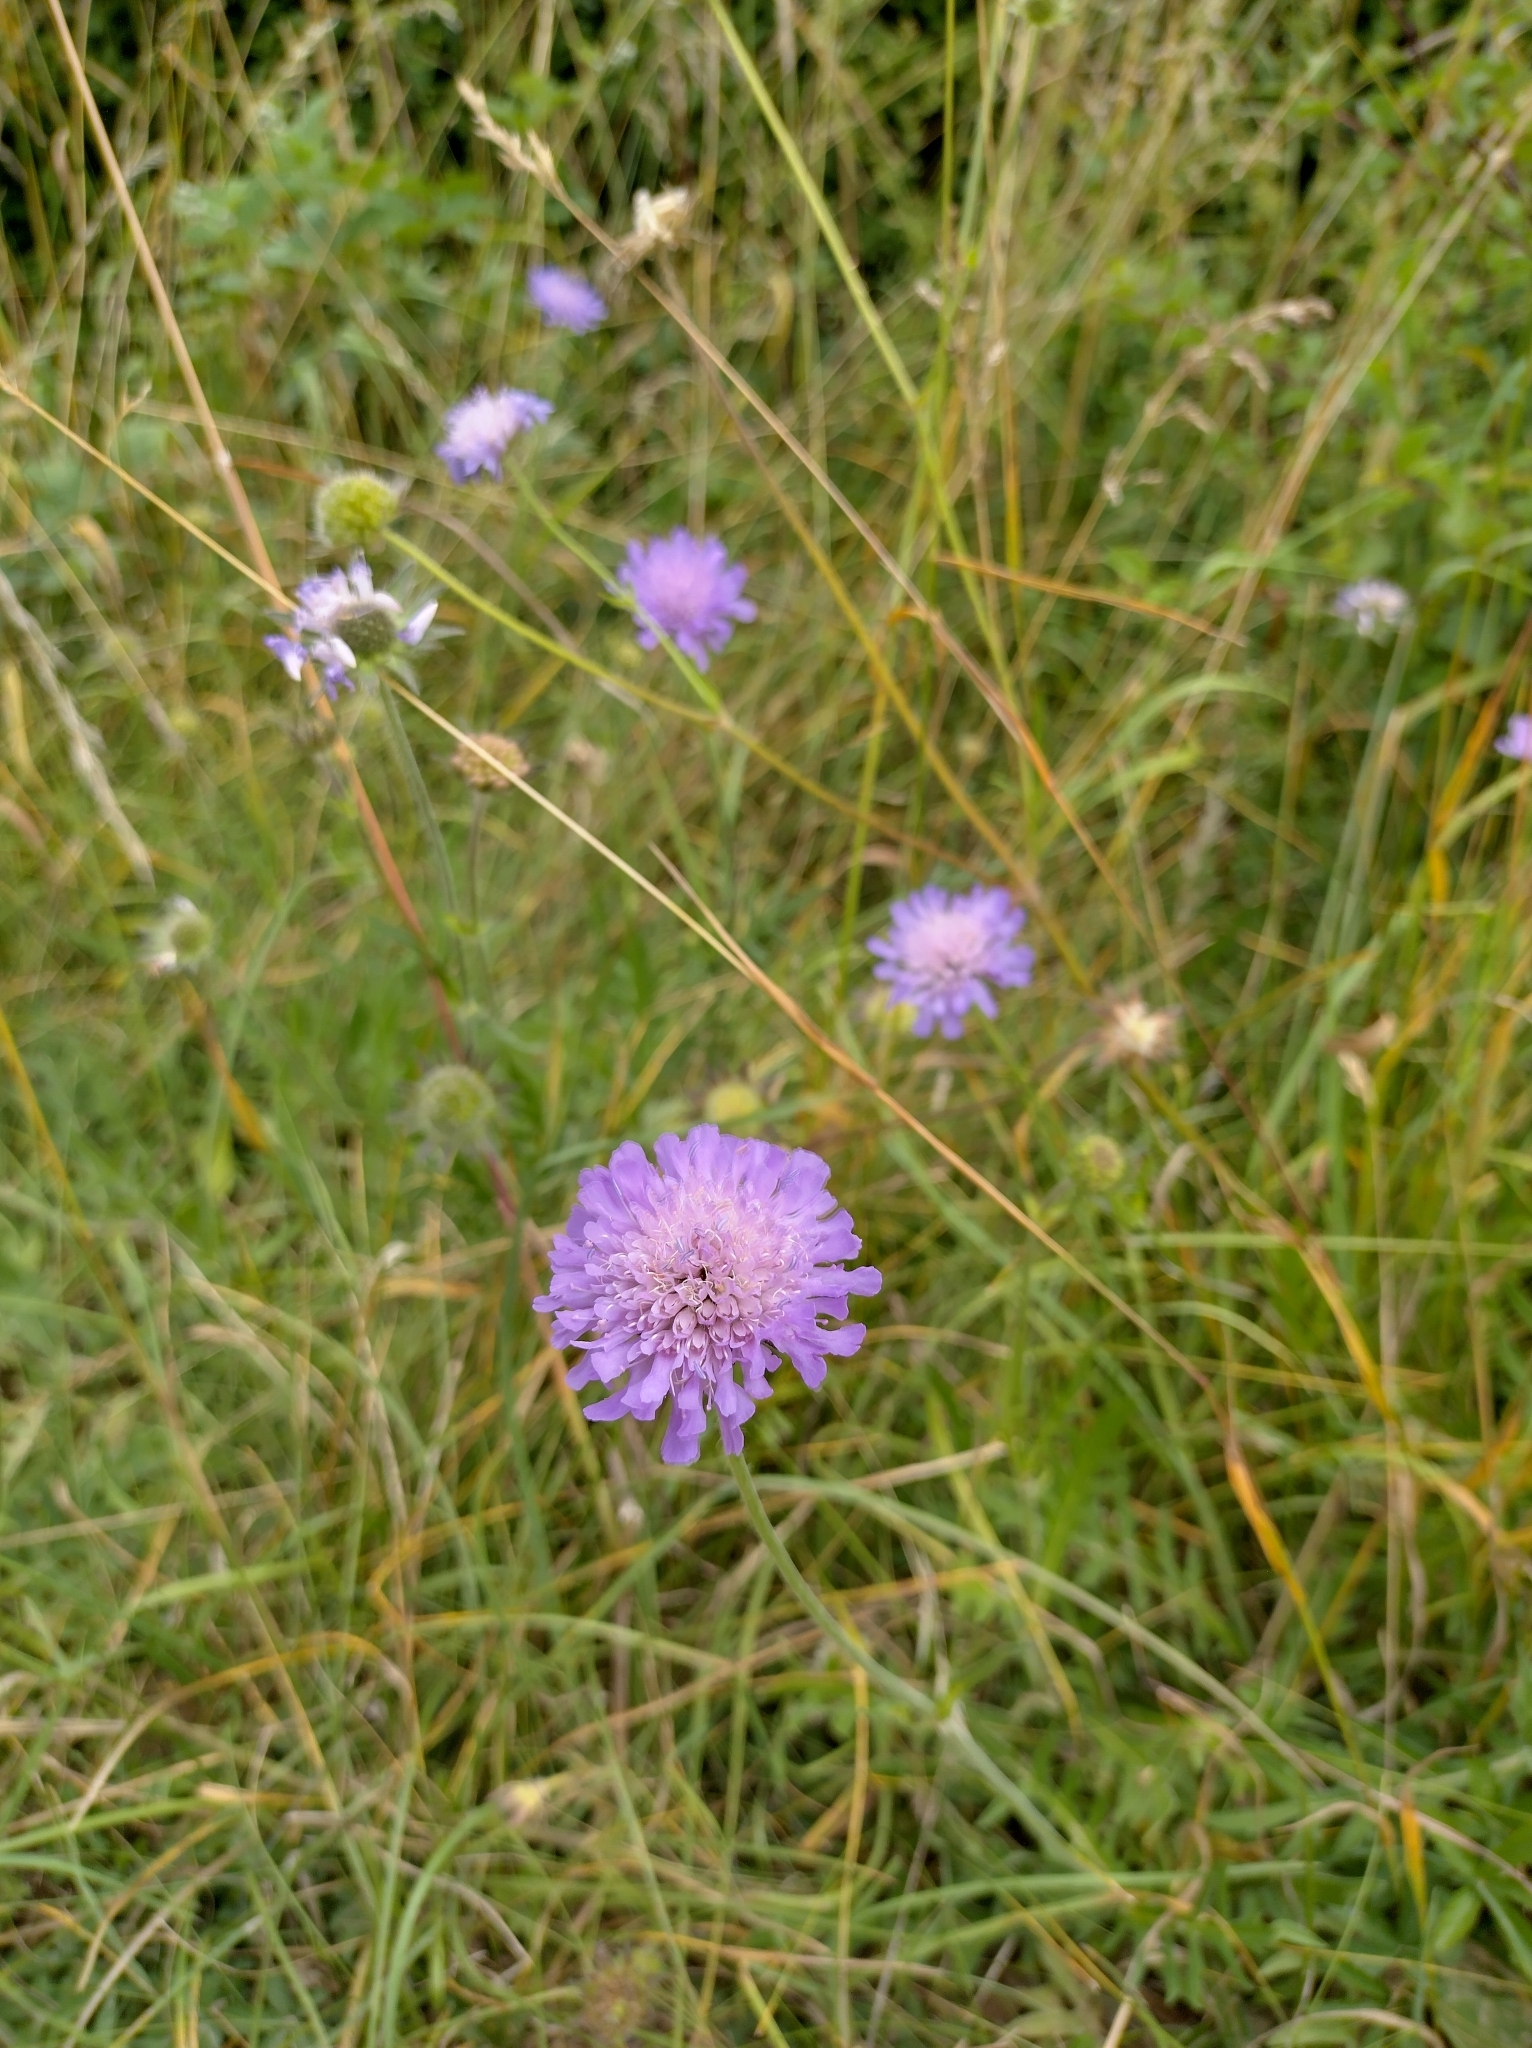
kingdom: Plantae
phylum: Tracheophyta
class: Magnoliopsida
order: Dipsacales
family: Caprifoliaceae
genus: Knautia
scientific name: Knautia arvensis
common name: Field scabiosa
